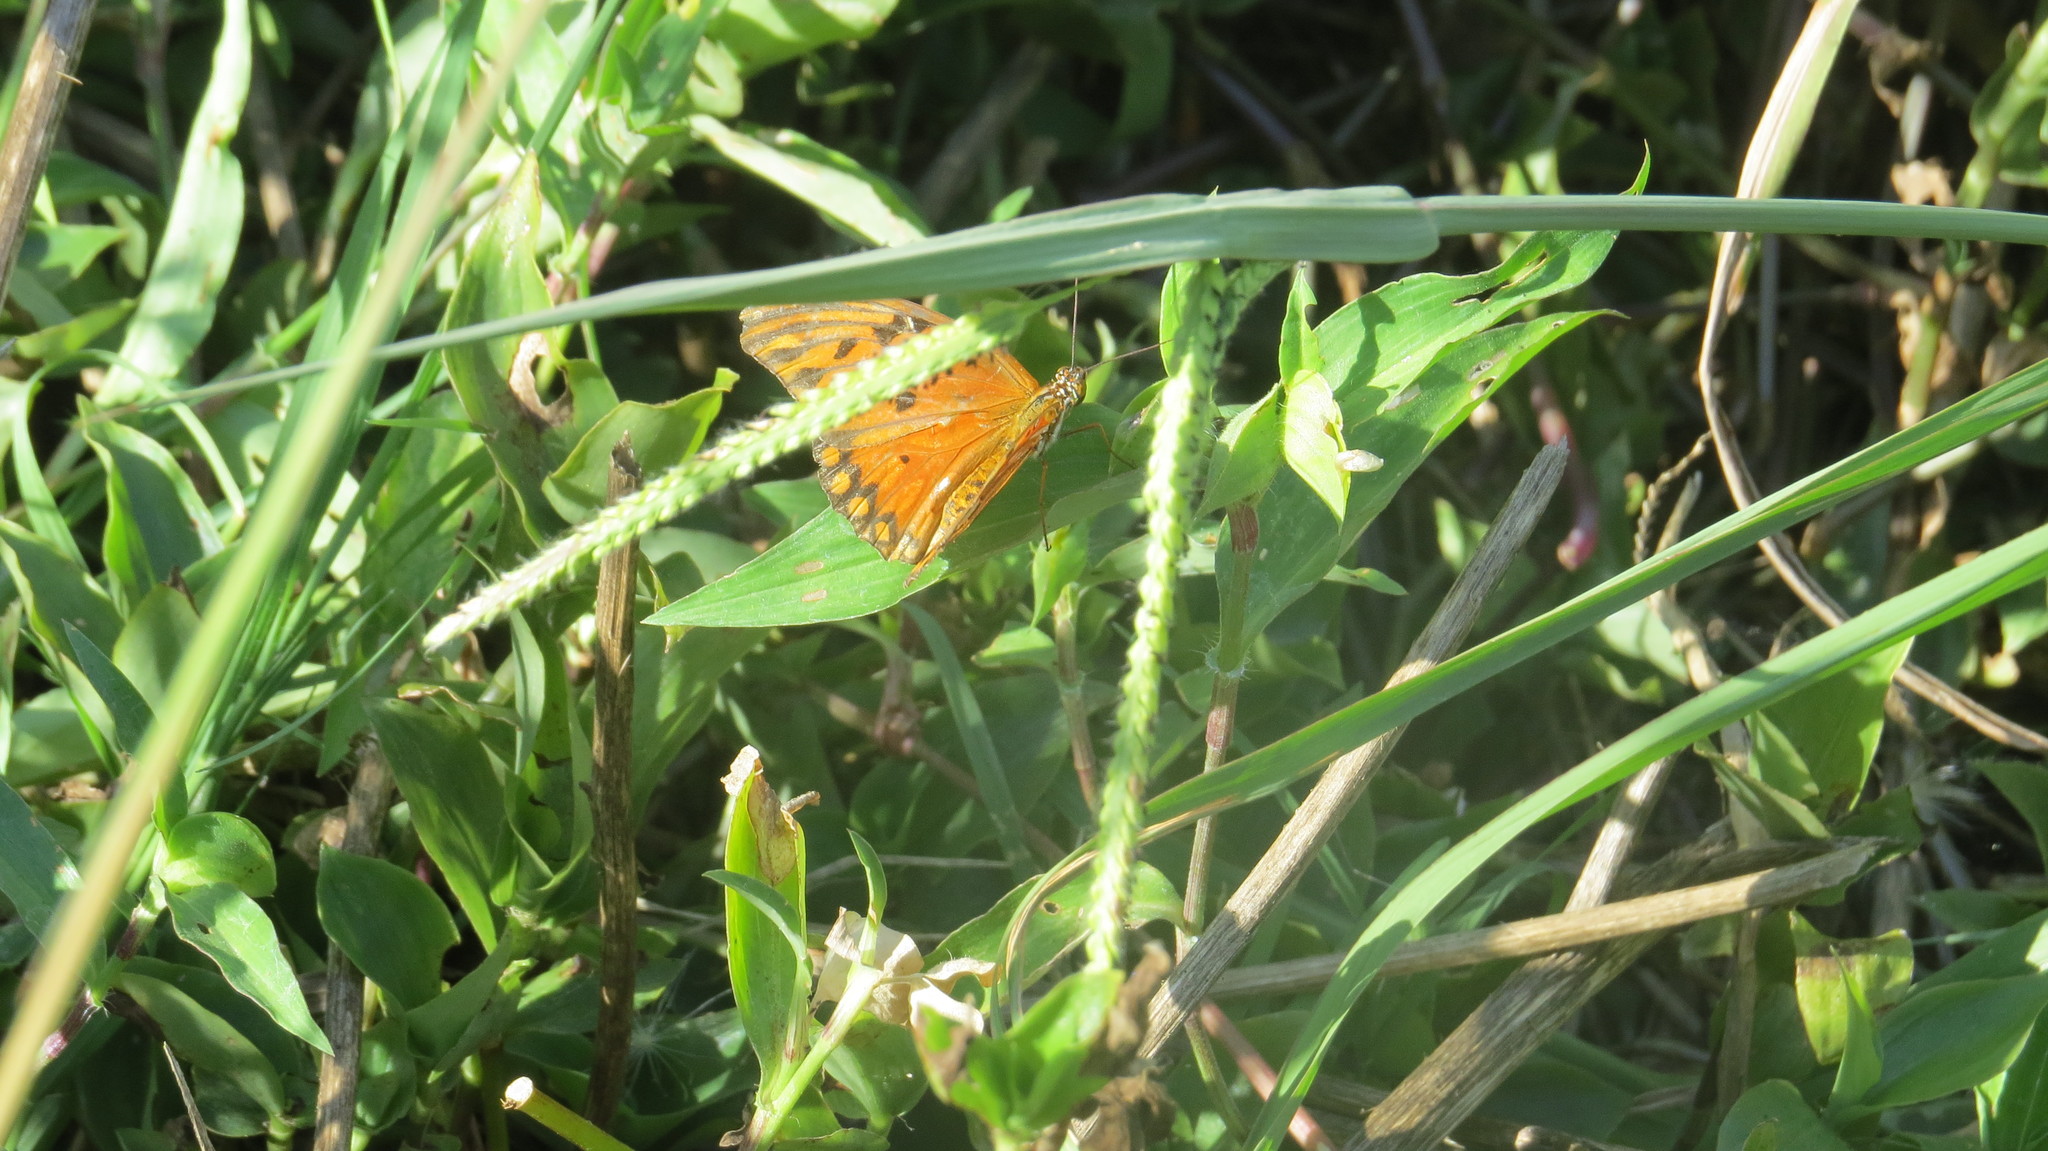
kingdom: Animalia
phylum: Arthropoda
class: Insecta
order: Lepidoptera
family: Nymphalidae
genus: Dione
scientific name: Dione vanillae
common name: Gulf fritillary
